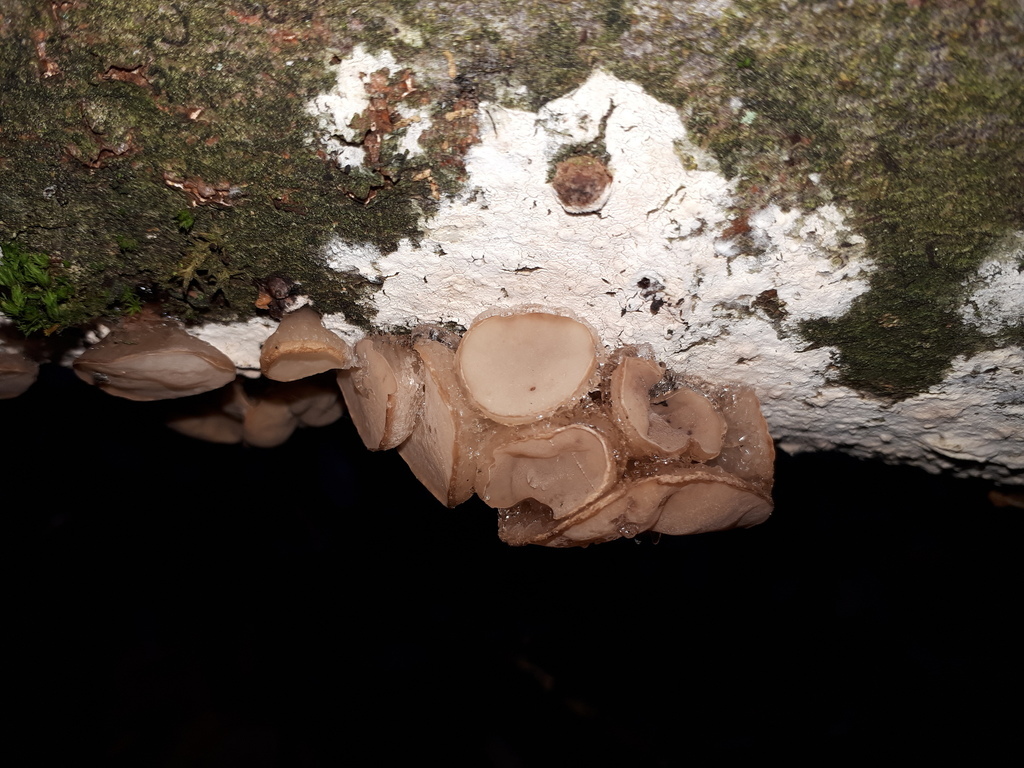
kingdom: Fungi
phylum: Ascomycota
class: Leotiomycetes
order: Helotiales
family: Gelatinodiscaceae
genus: Neobulgaria
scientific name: Neobulgaria pura
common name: Beech jelly-disc
